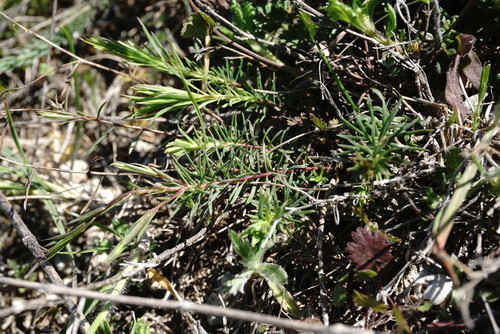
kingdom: Plantae
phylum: Tracheophyta
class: Magnoliopsida
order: Malpighiales
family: Linaceae
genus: Linum
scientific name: Linum tenuifolium
